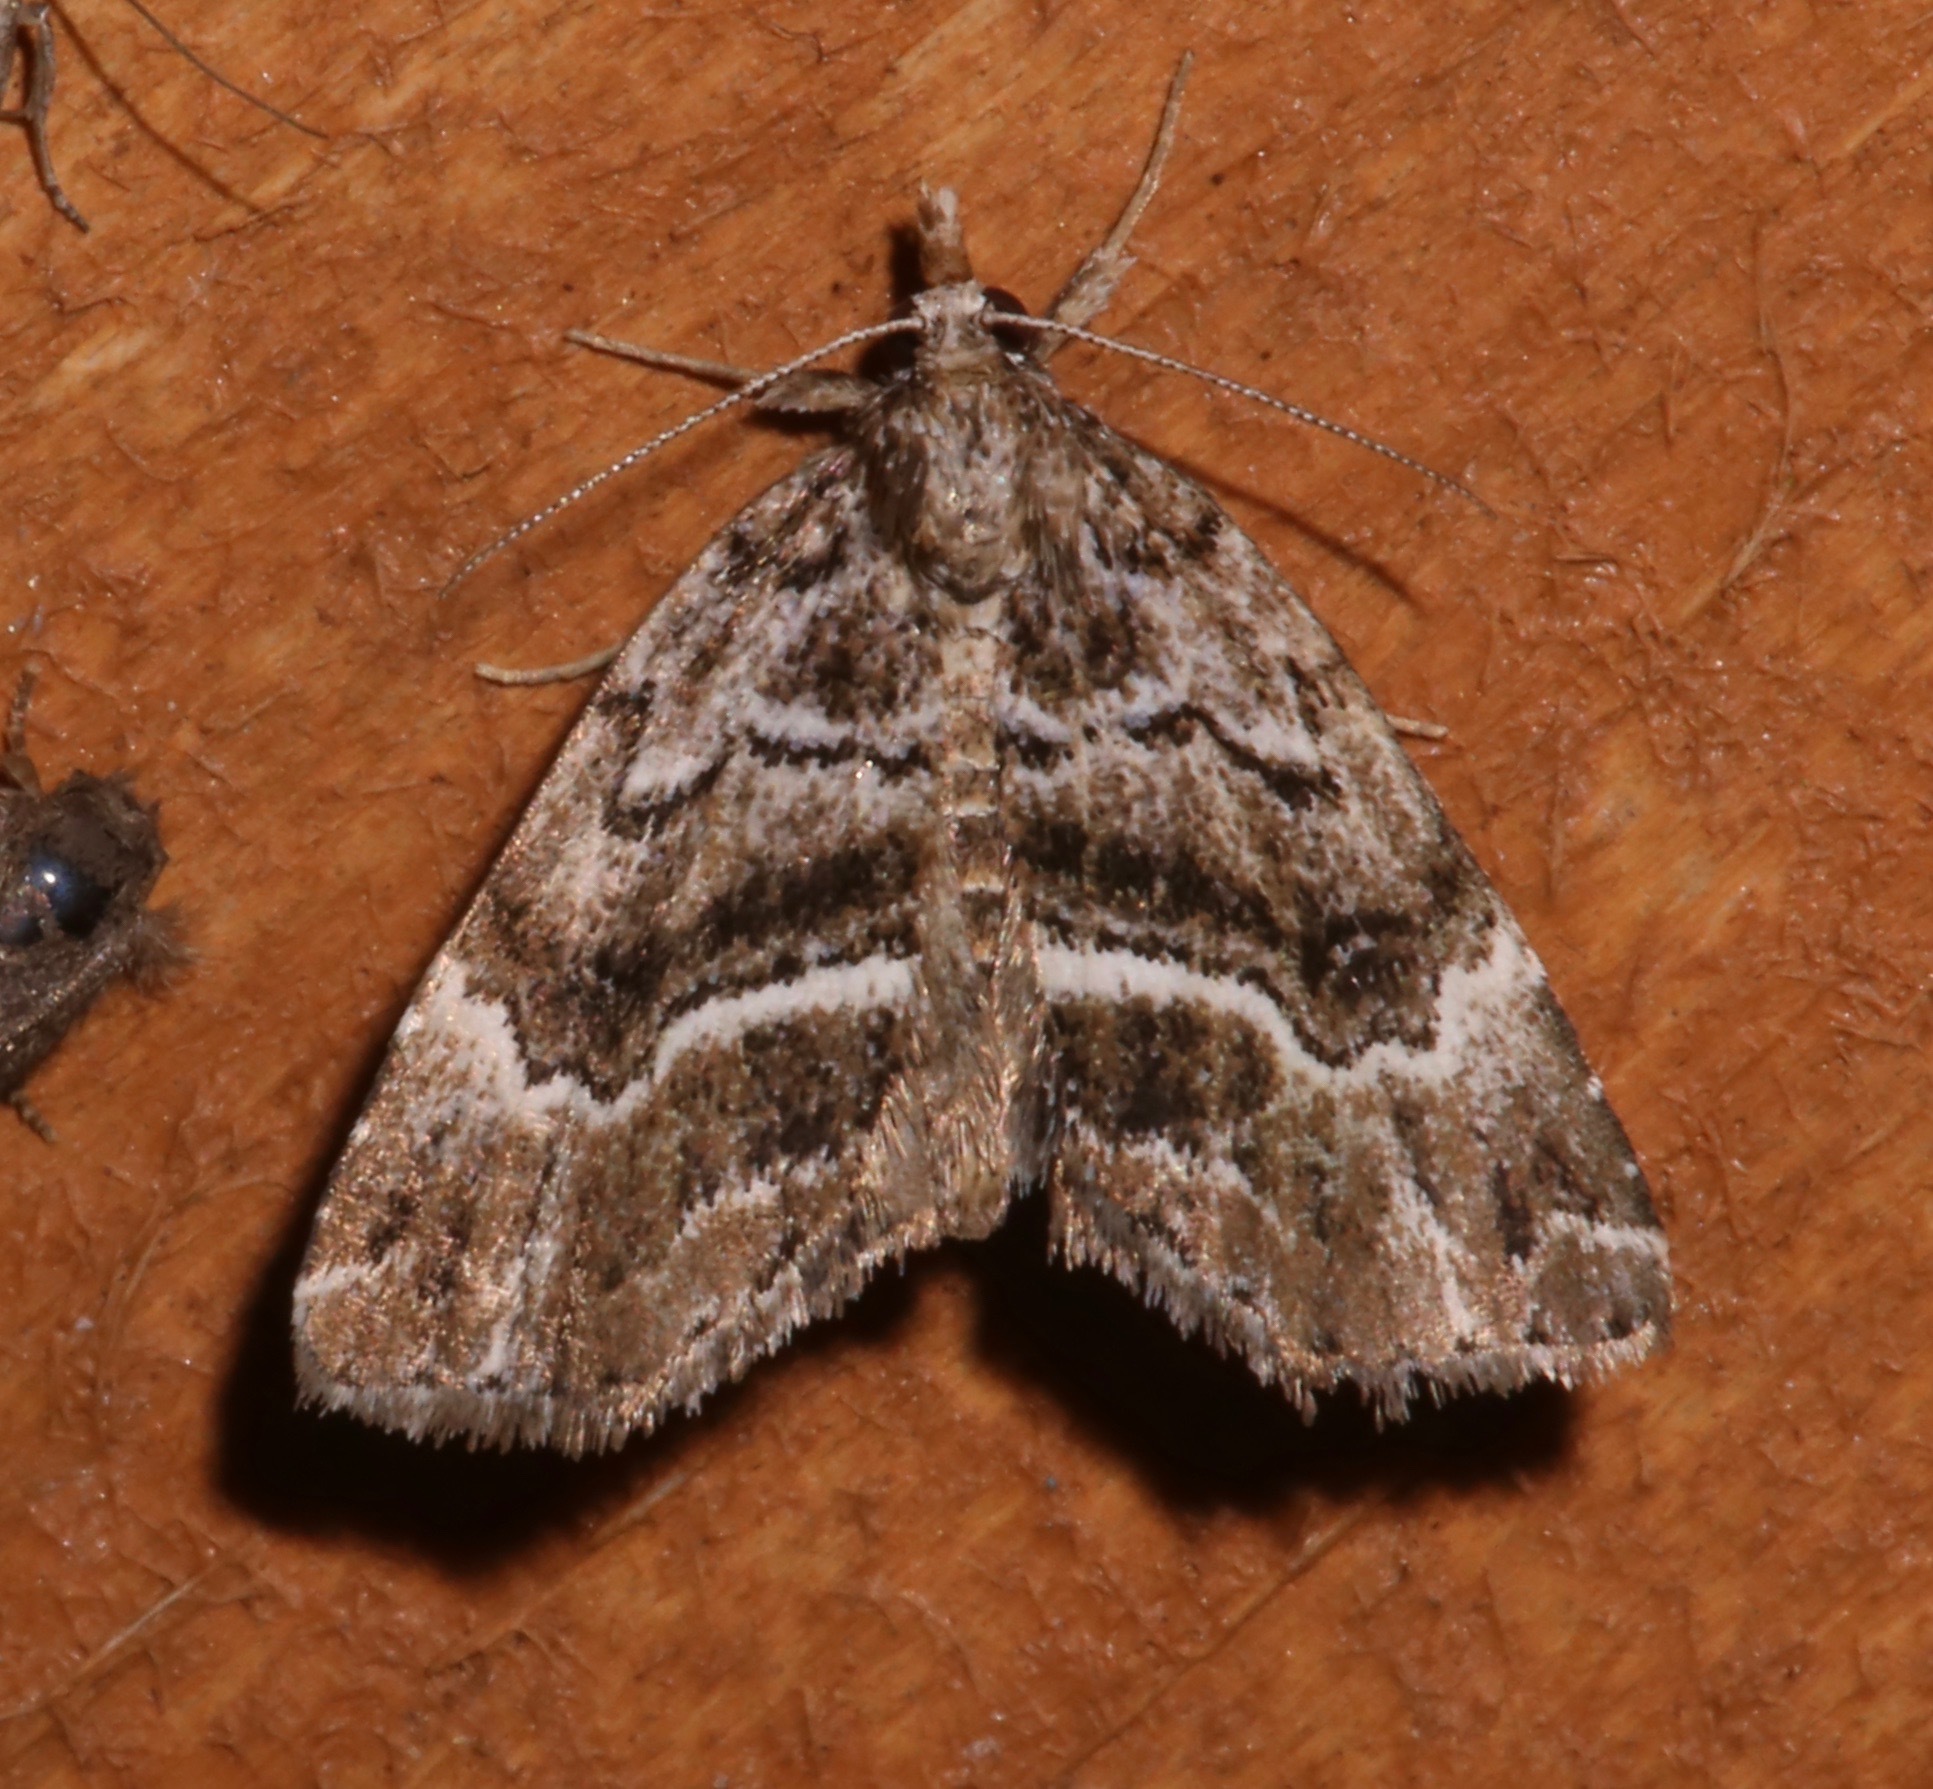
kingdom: Animalia
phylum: Arthropoda
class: Insecta
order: Lepidoptera
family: Erebidae
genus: Cutina
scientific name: Cutina arcuata
